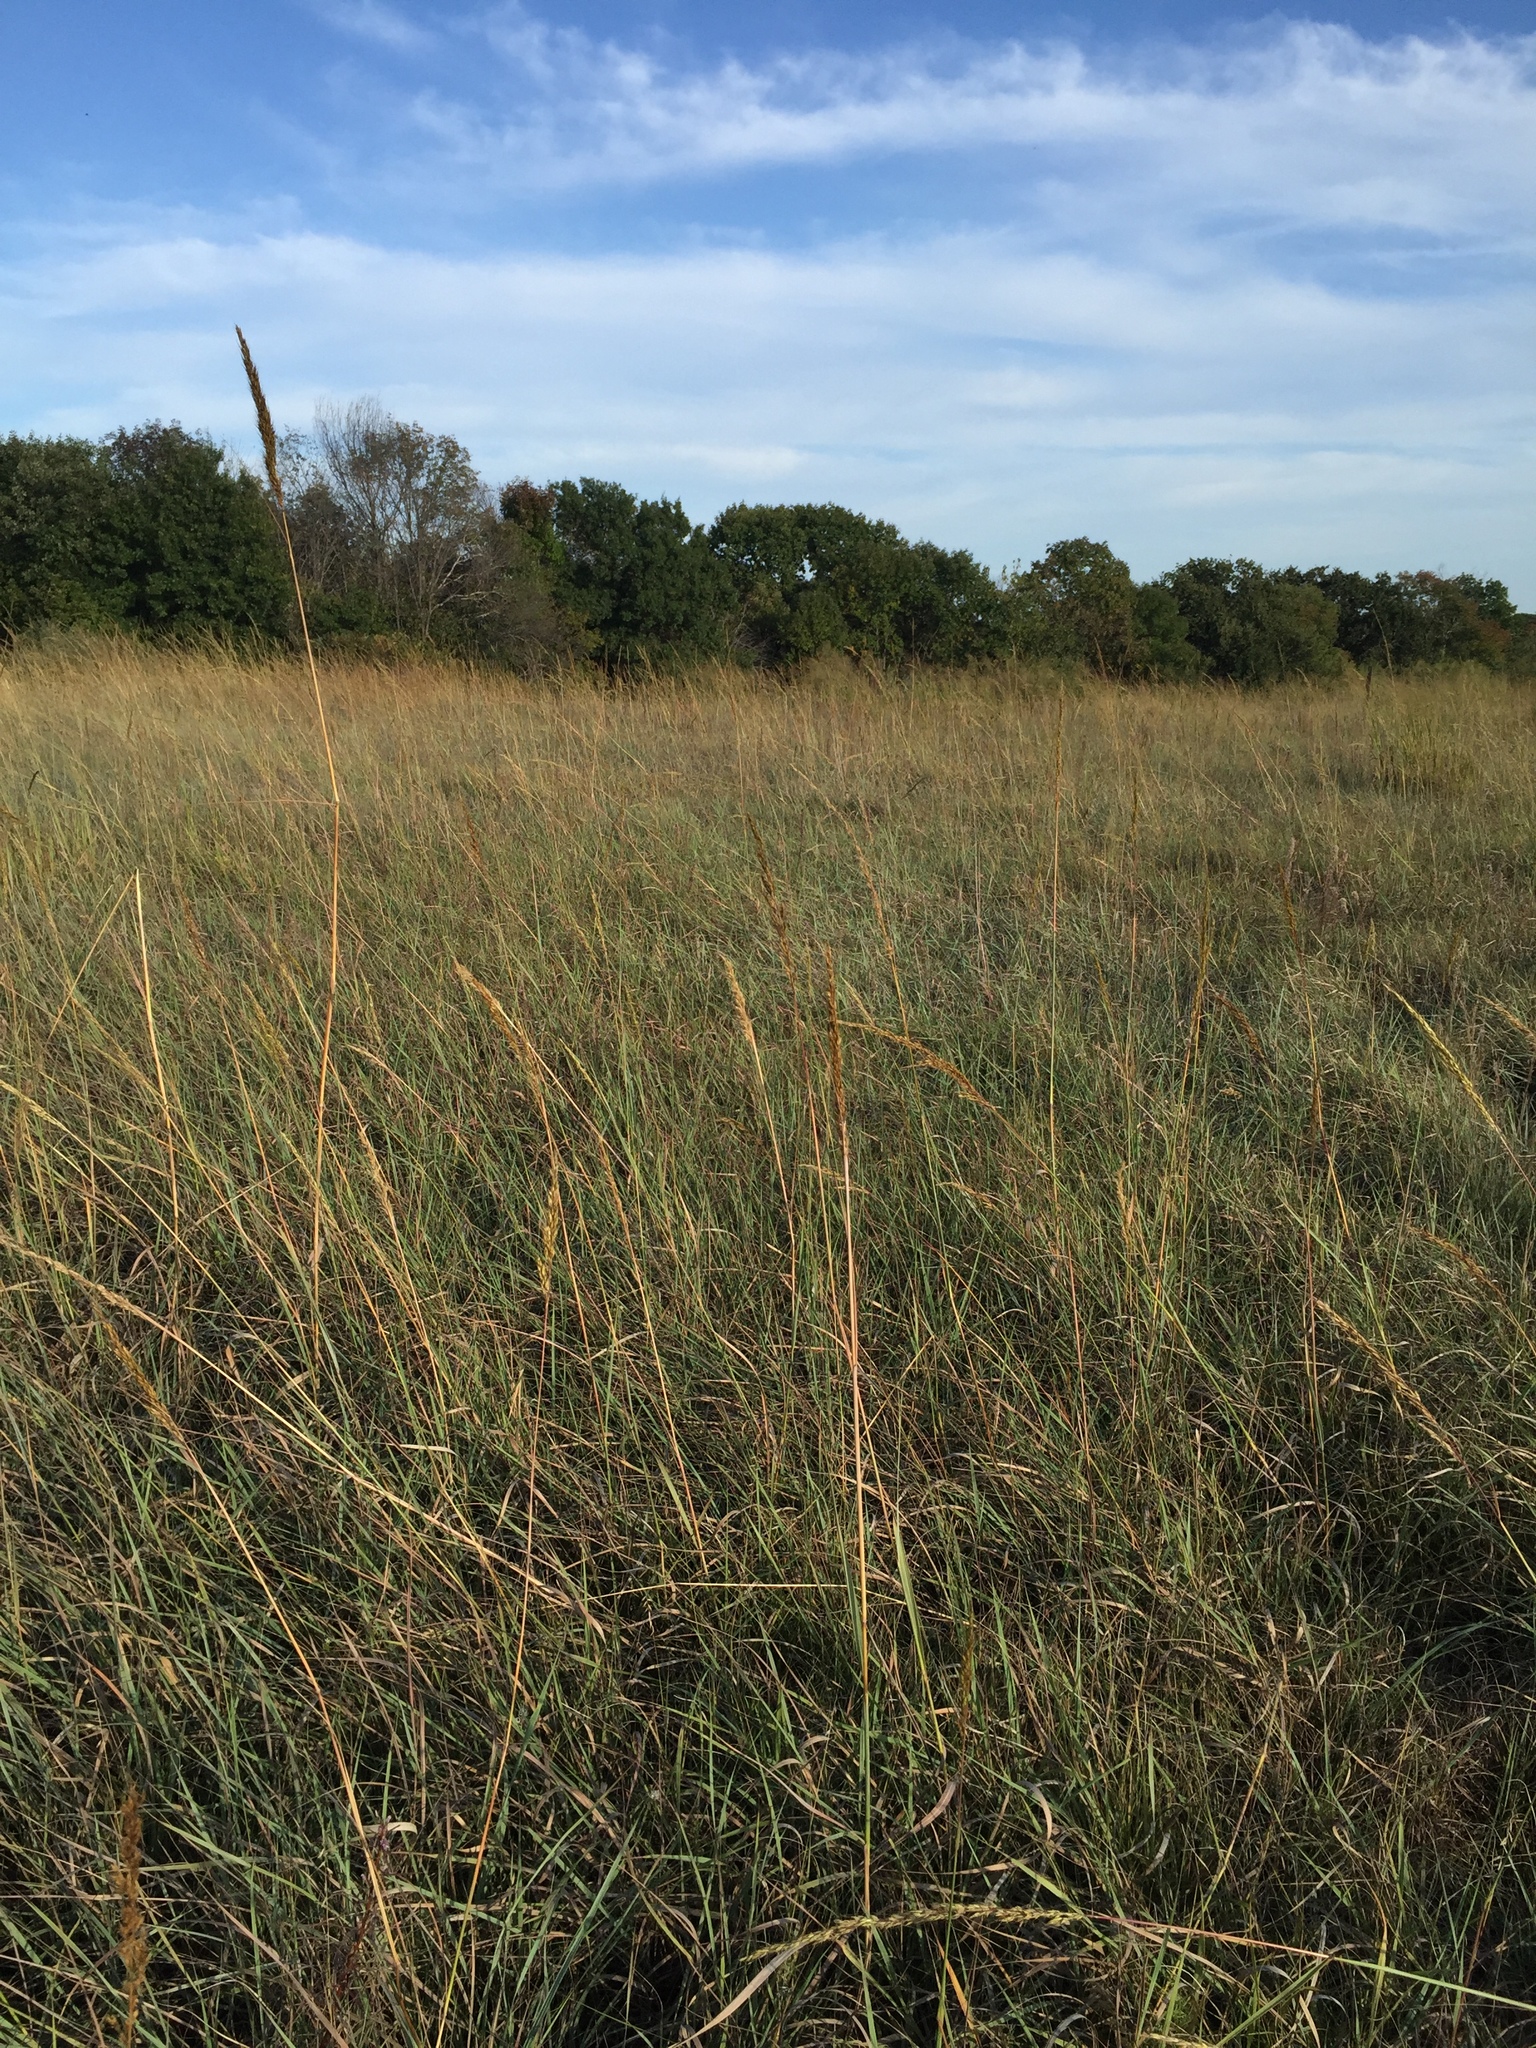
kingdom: Plantae
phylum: Tracheophyta
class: Liliopsida
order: Poales
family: Poaceae
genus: Sorghastrum
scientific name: Sorghastrum nutans
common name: Indian grass
